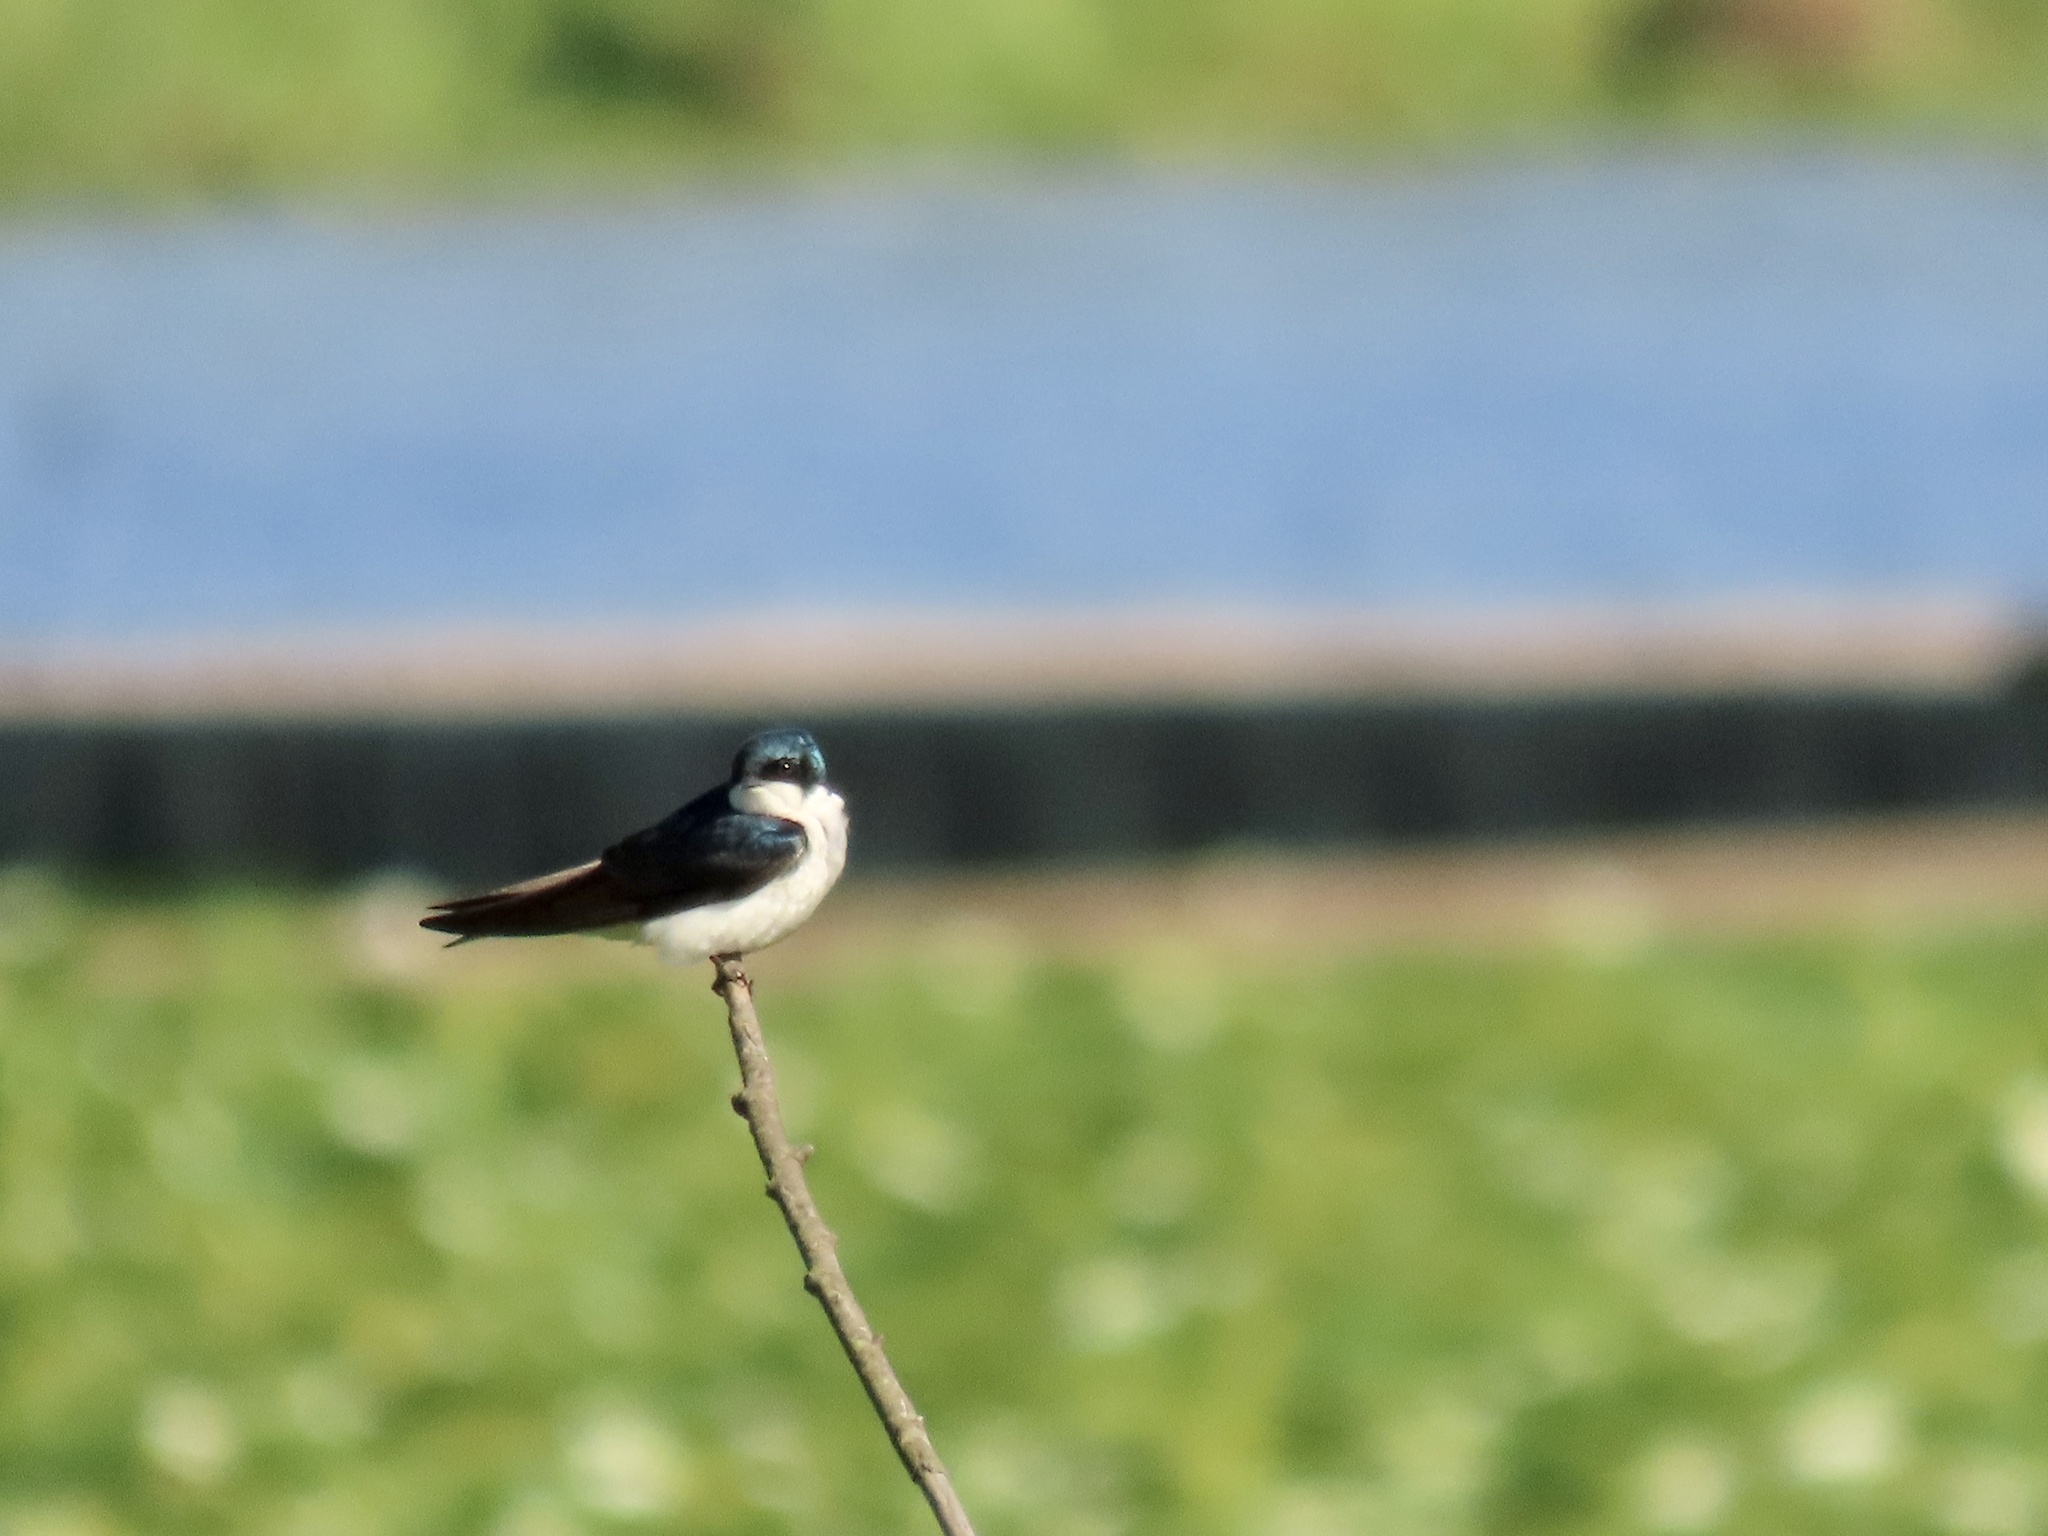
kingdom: Animalia
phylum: Chordata
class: Aves
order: Passeriformes
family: Hirundinidae
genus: Tachycineta
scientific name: Tachycineta bicolor
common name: Tree swallow
